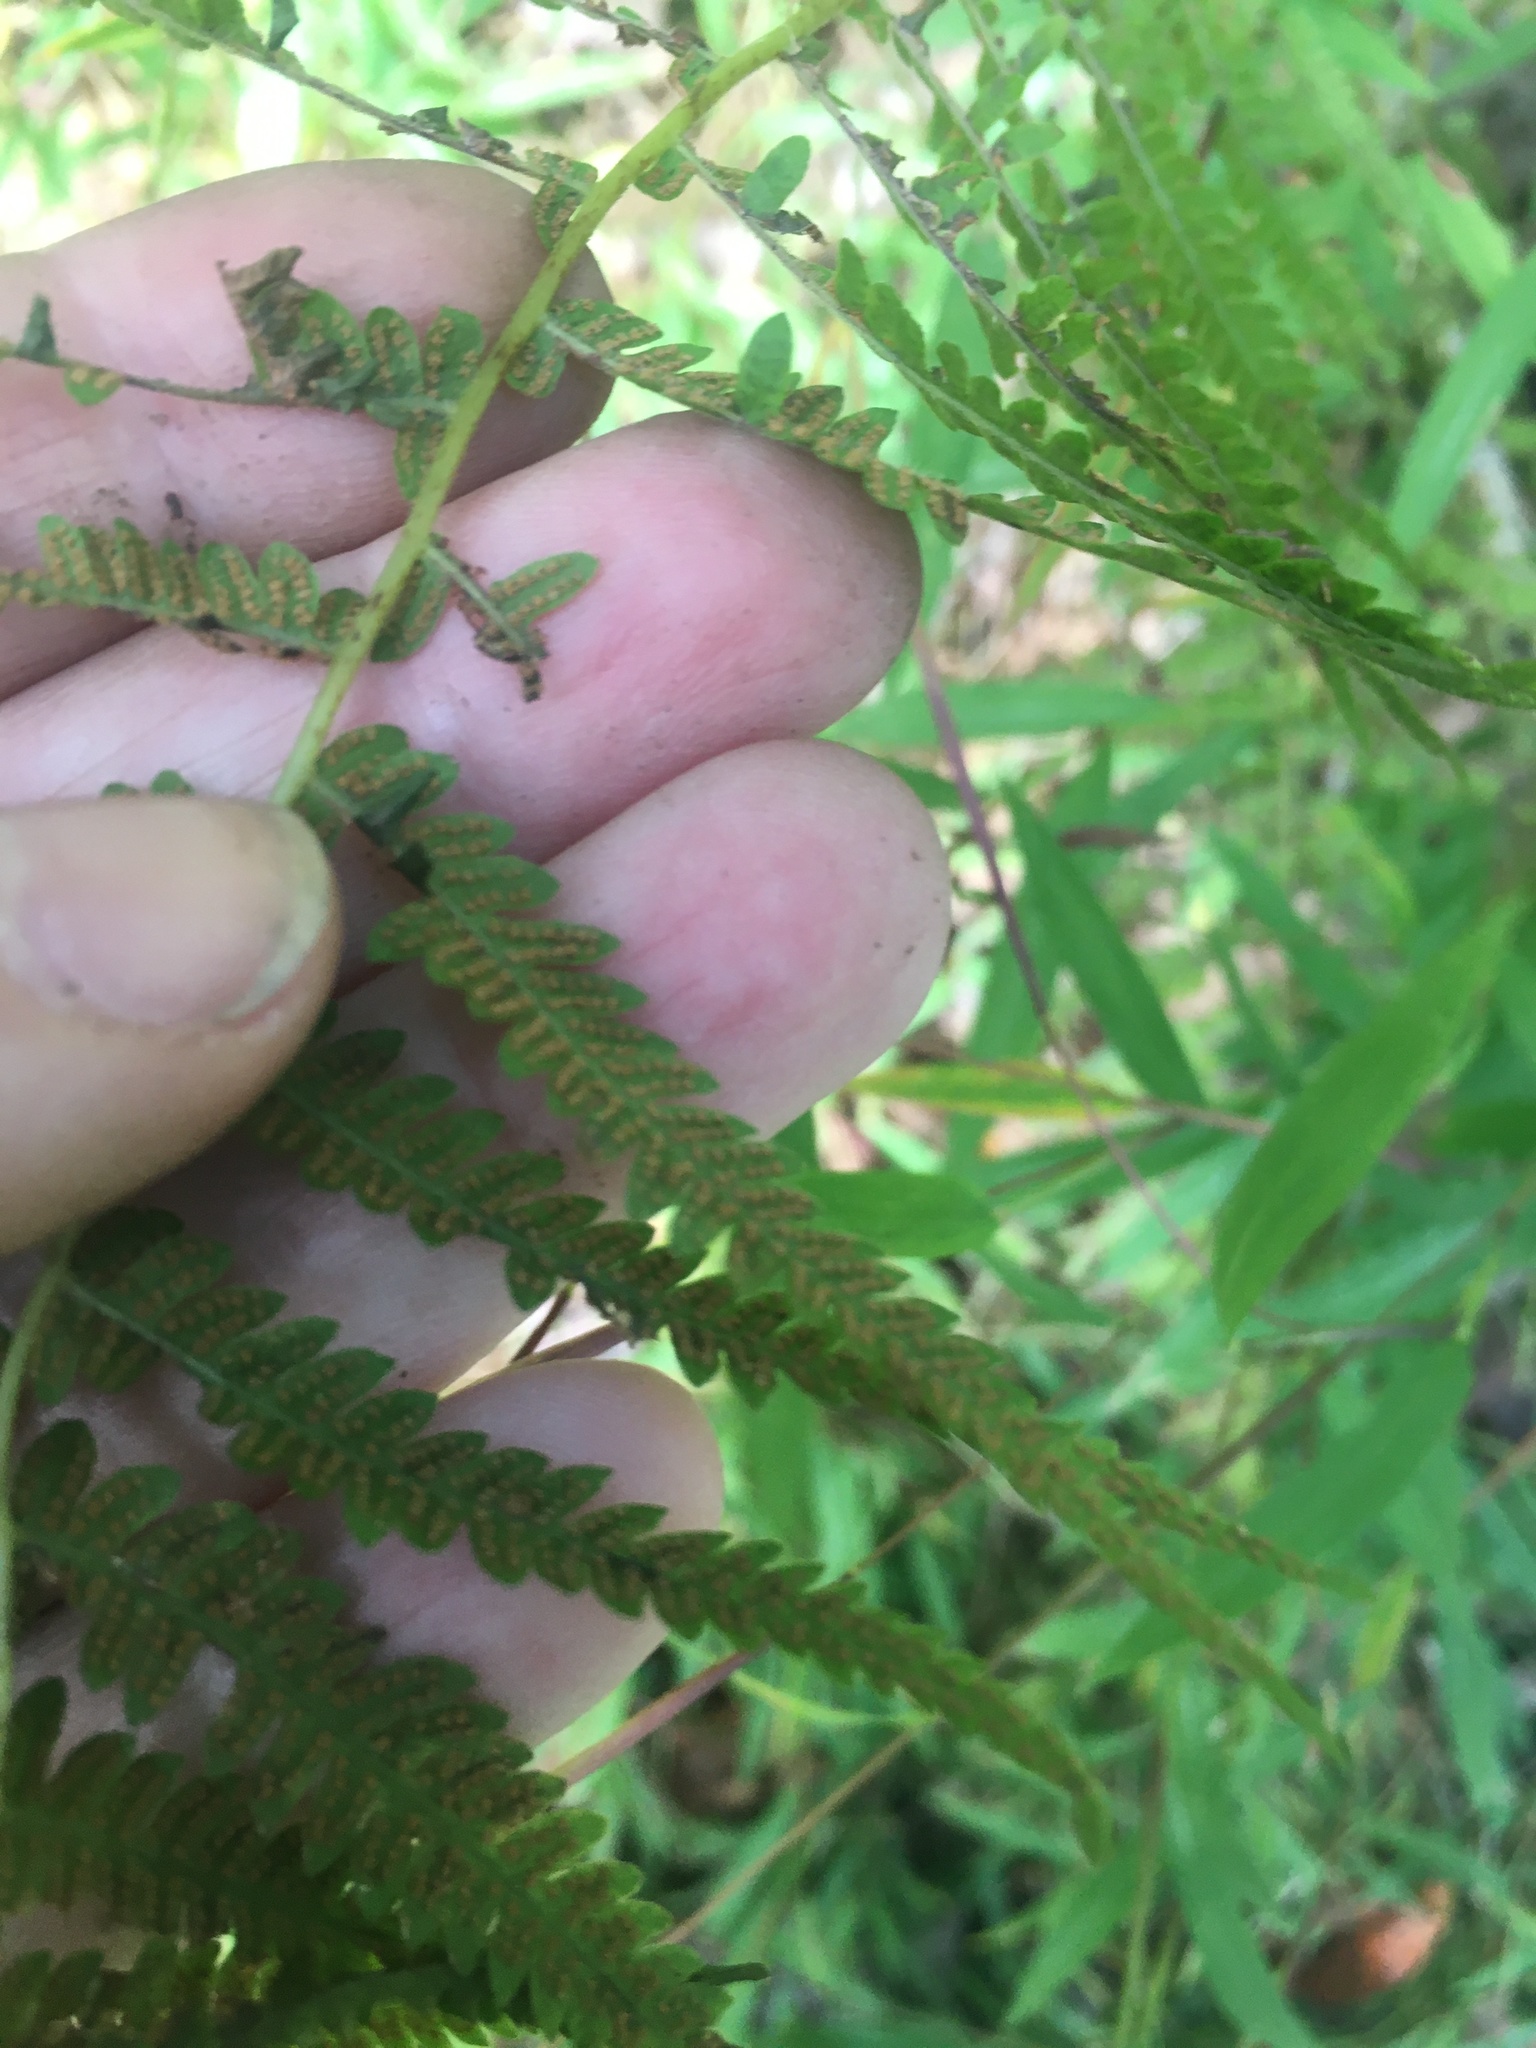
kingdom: Plantae
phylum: Tracheophyta
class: Polypodiopsida
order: Polypodiales
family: Thelypteridaceae
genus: Amauropelta
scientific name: Amauropelta noveboracensis
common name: New york fern
